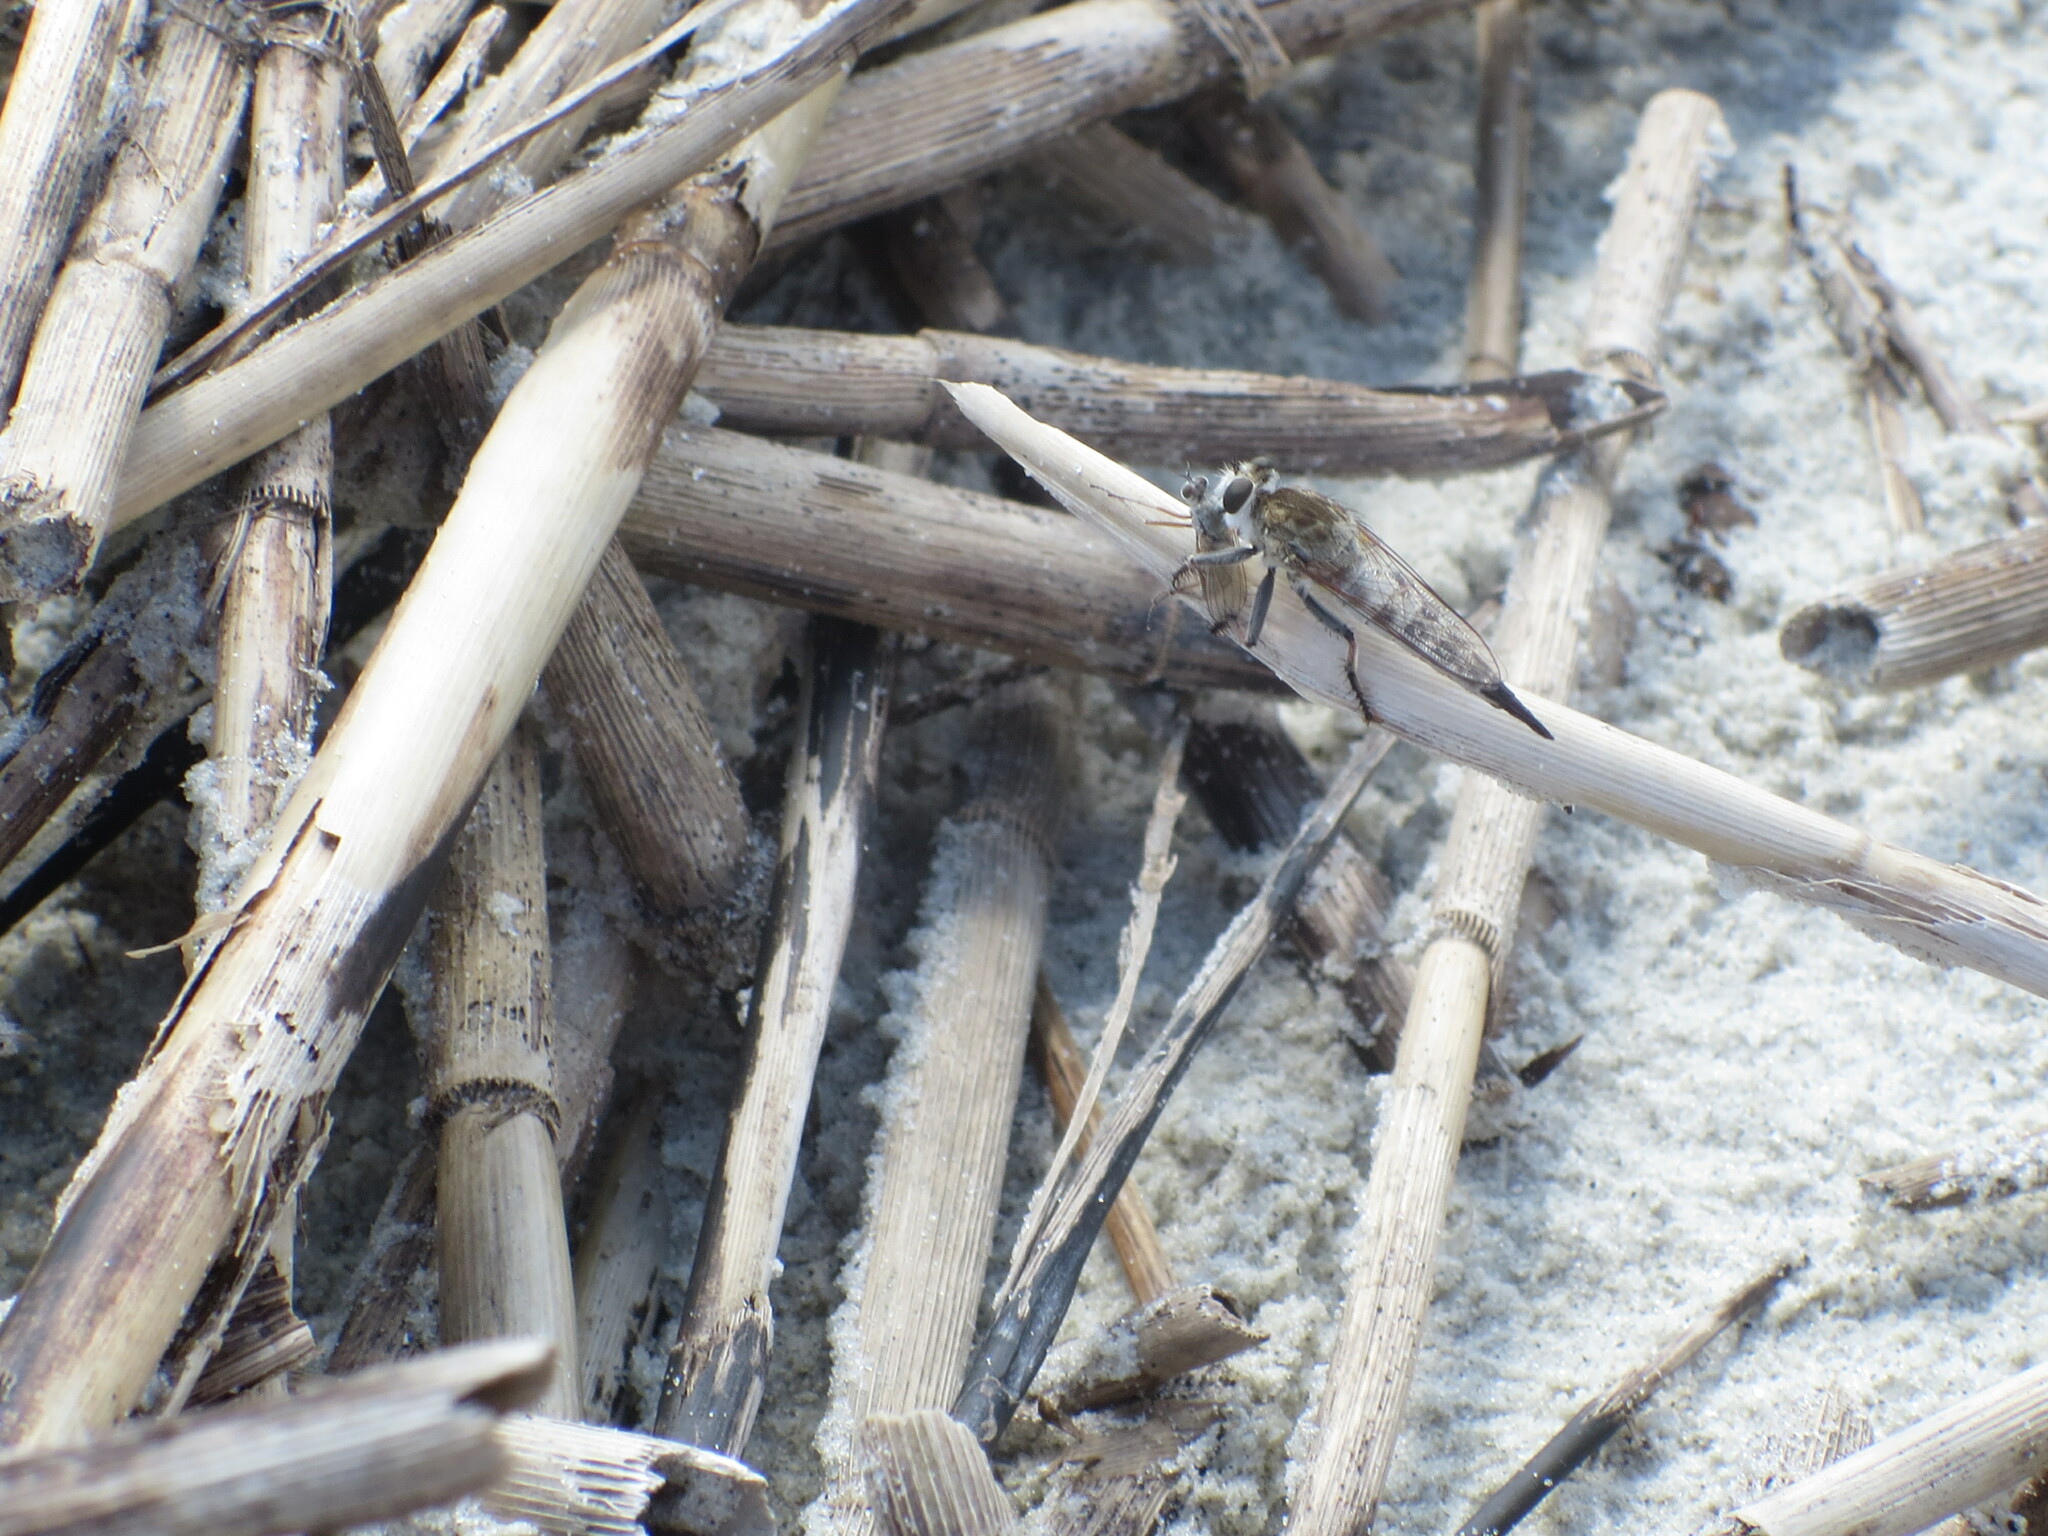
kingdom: Animalia
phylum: Arthropoda
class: Insecta
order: Diptera
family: Asilidae
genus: Efferia
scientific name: Efferia albibarbis
